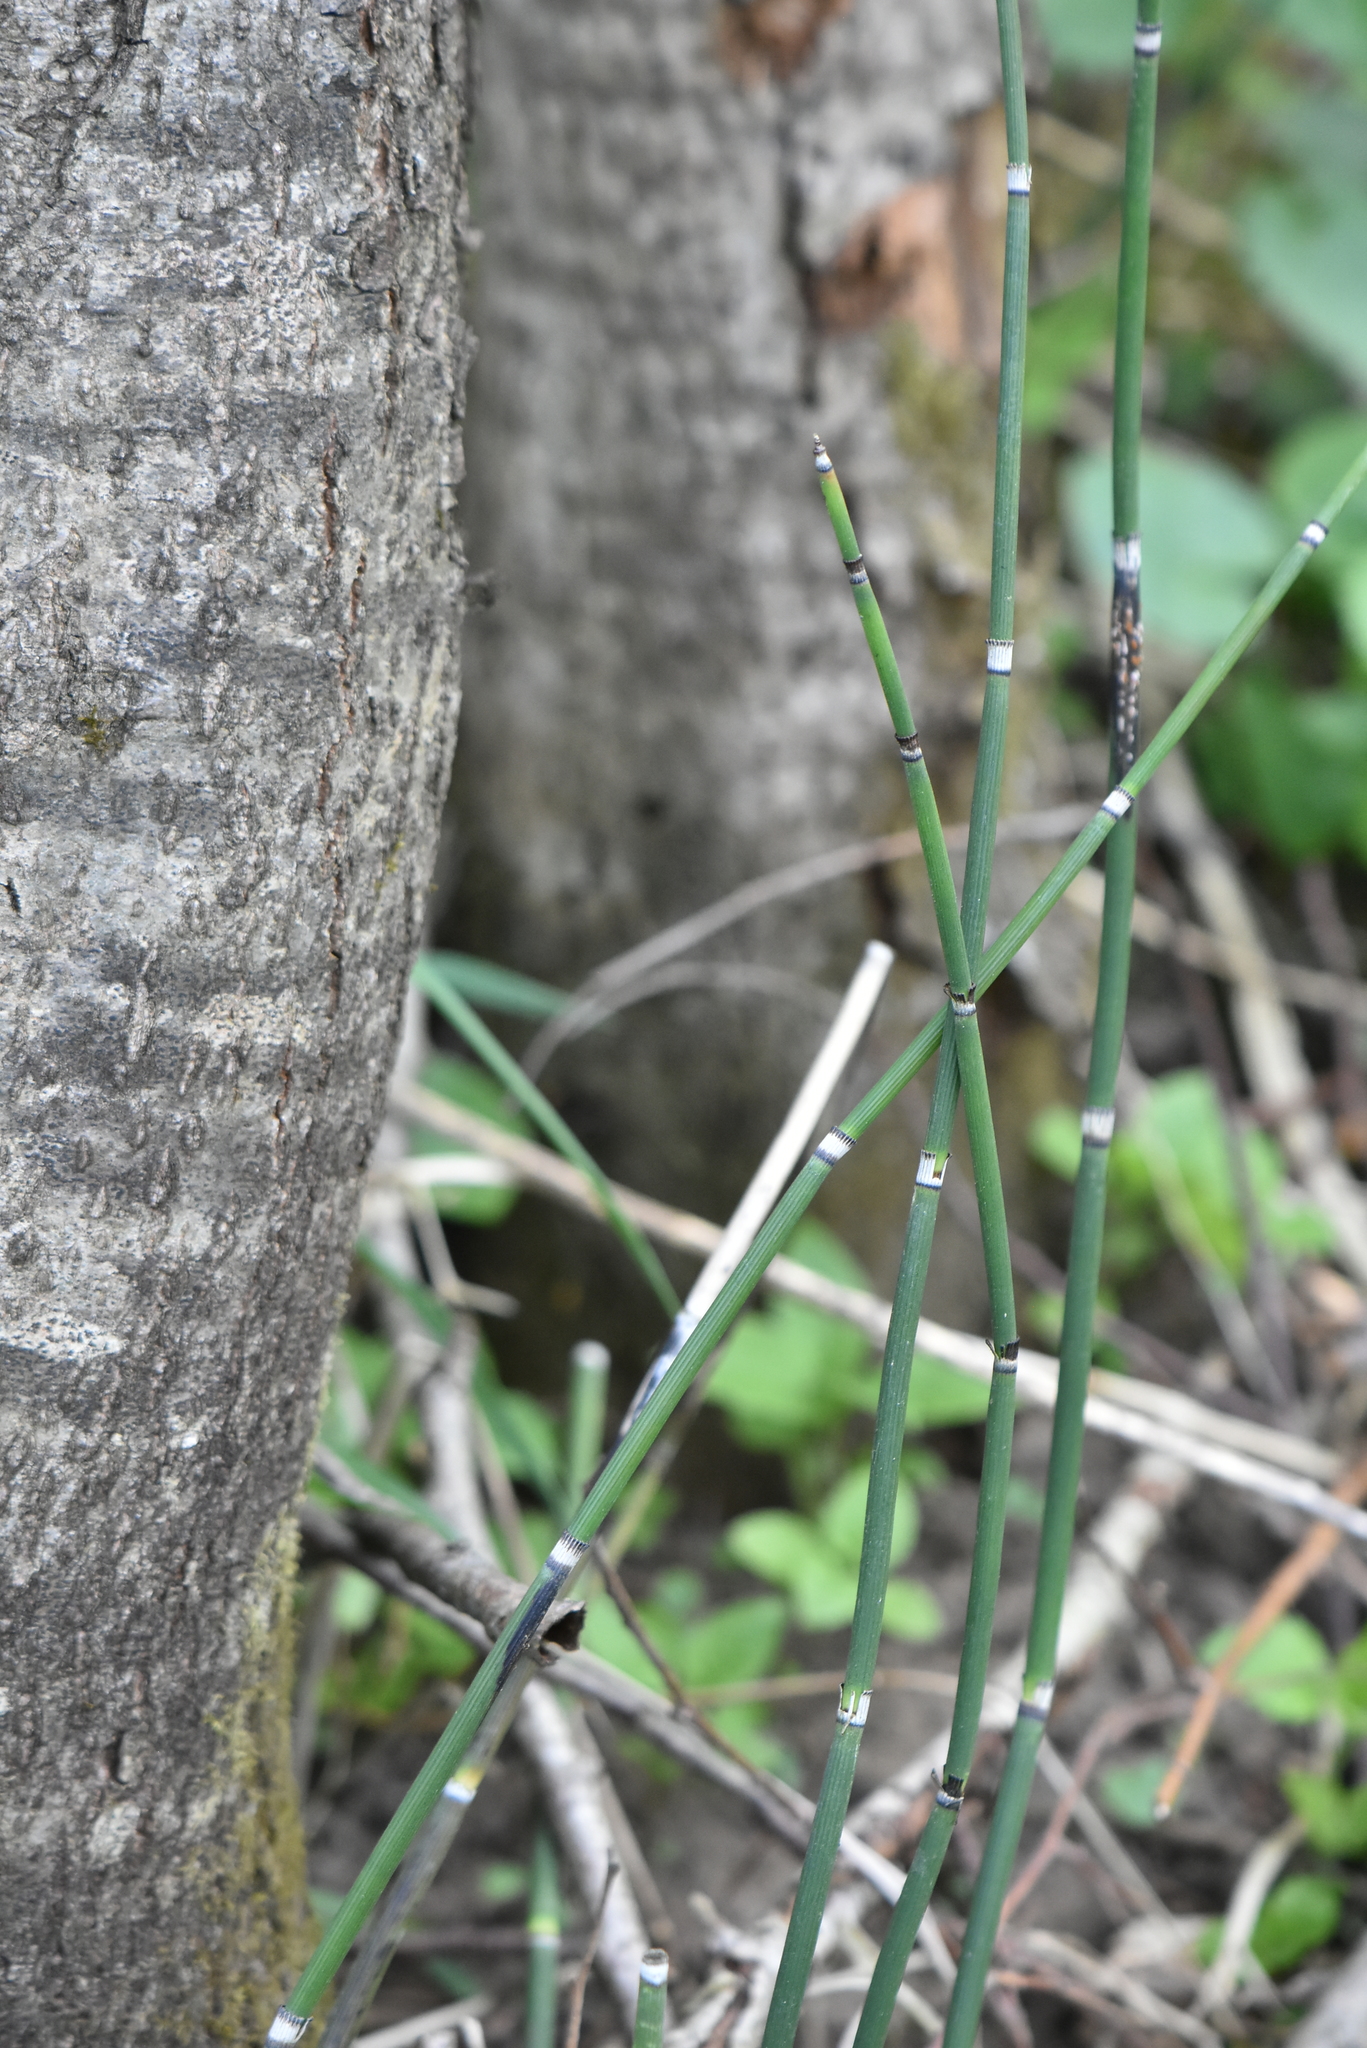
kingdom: Plantae
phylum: Tracheophyta
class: Polypodiopsida
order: Equisetales
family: Equisetaceae
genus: Equisetum
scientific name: Equisetum hyemale
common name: Rough horsetail
